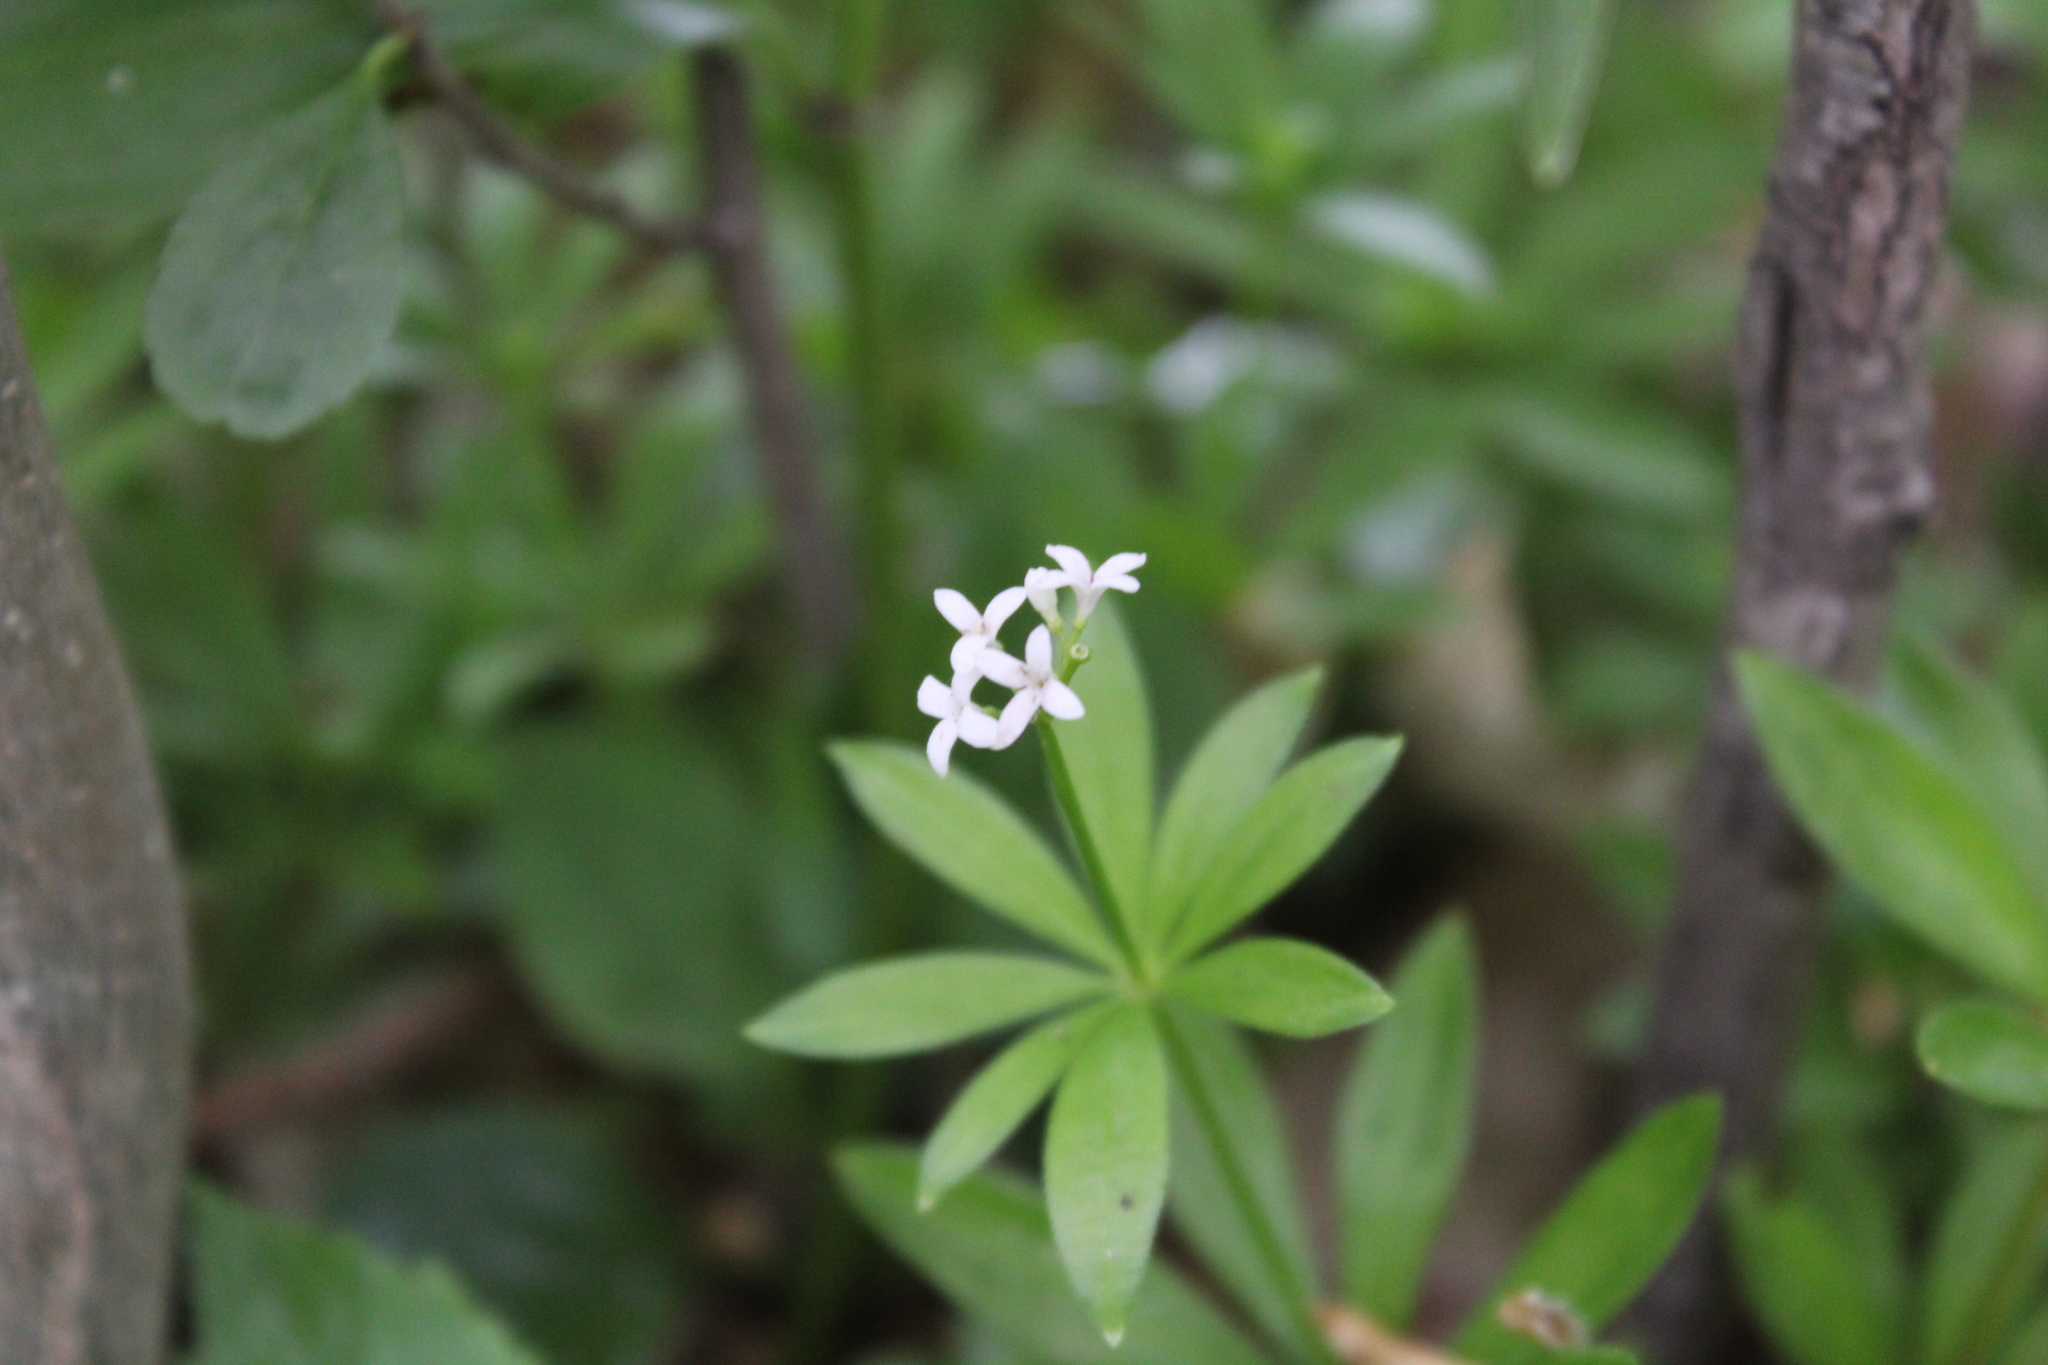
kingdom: Plantae
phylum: Tracheophyta
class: Magnoliopsida
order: Gentianales
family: Rubiaceae
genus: Galium
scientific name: Galium odoratum
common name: Sweet woodruff
